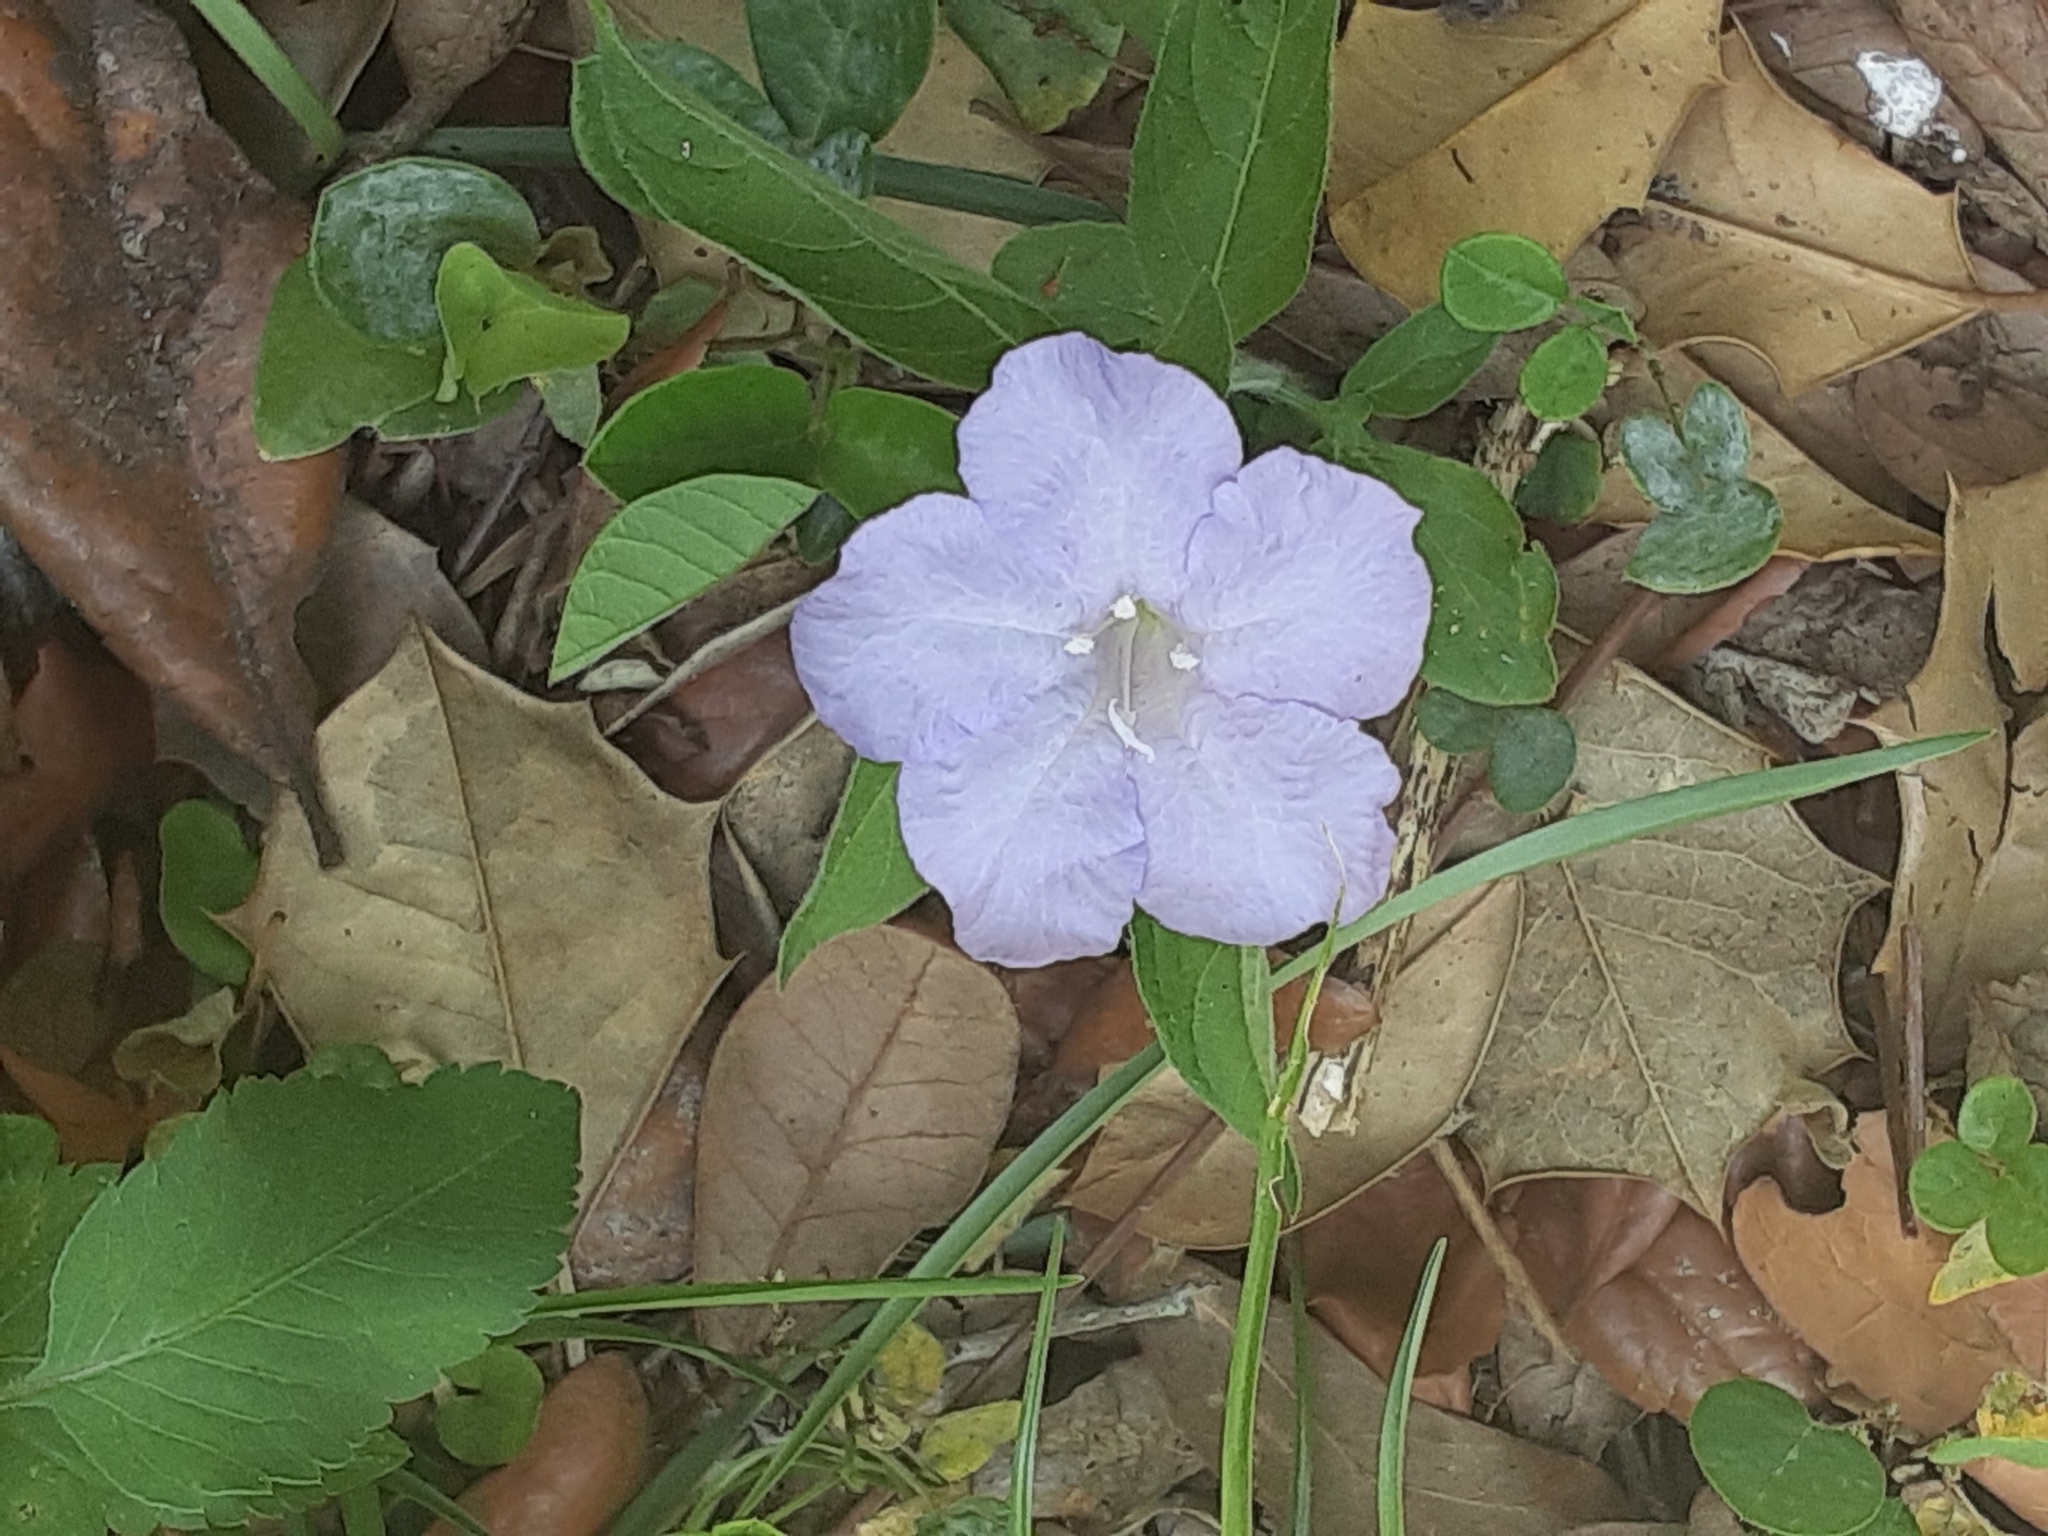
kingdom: Plantae
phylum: Tracheophyta
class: Magnoliopsida
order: Lamiales
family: Acanthaceae
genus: Ruellia
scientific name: Ruellia caroliniensis
